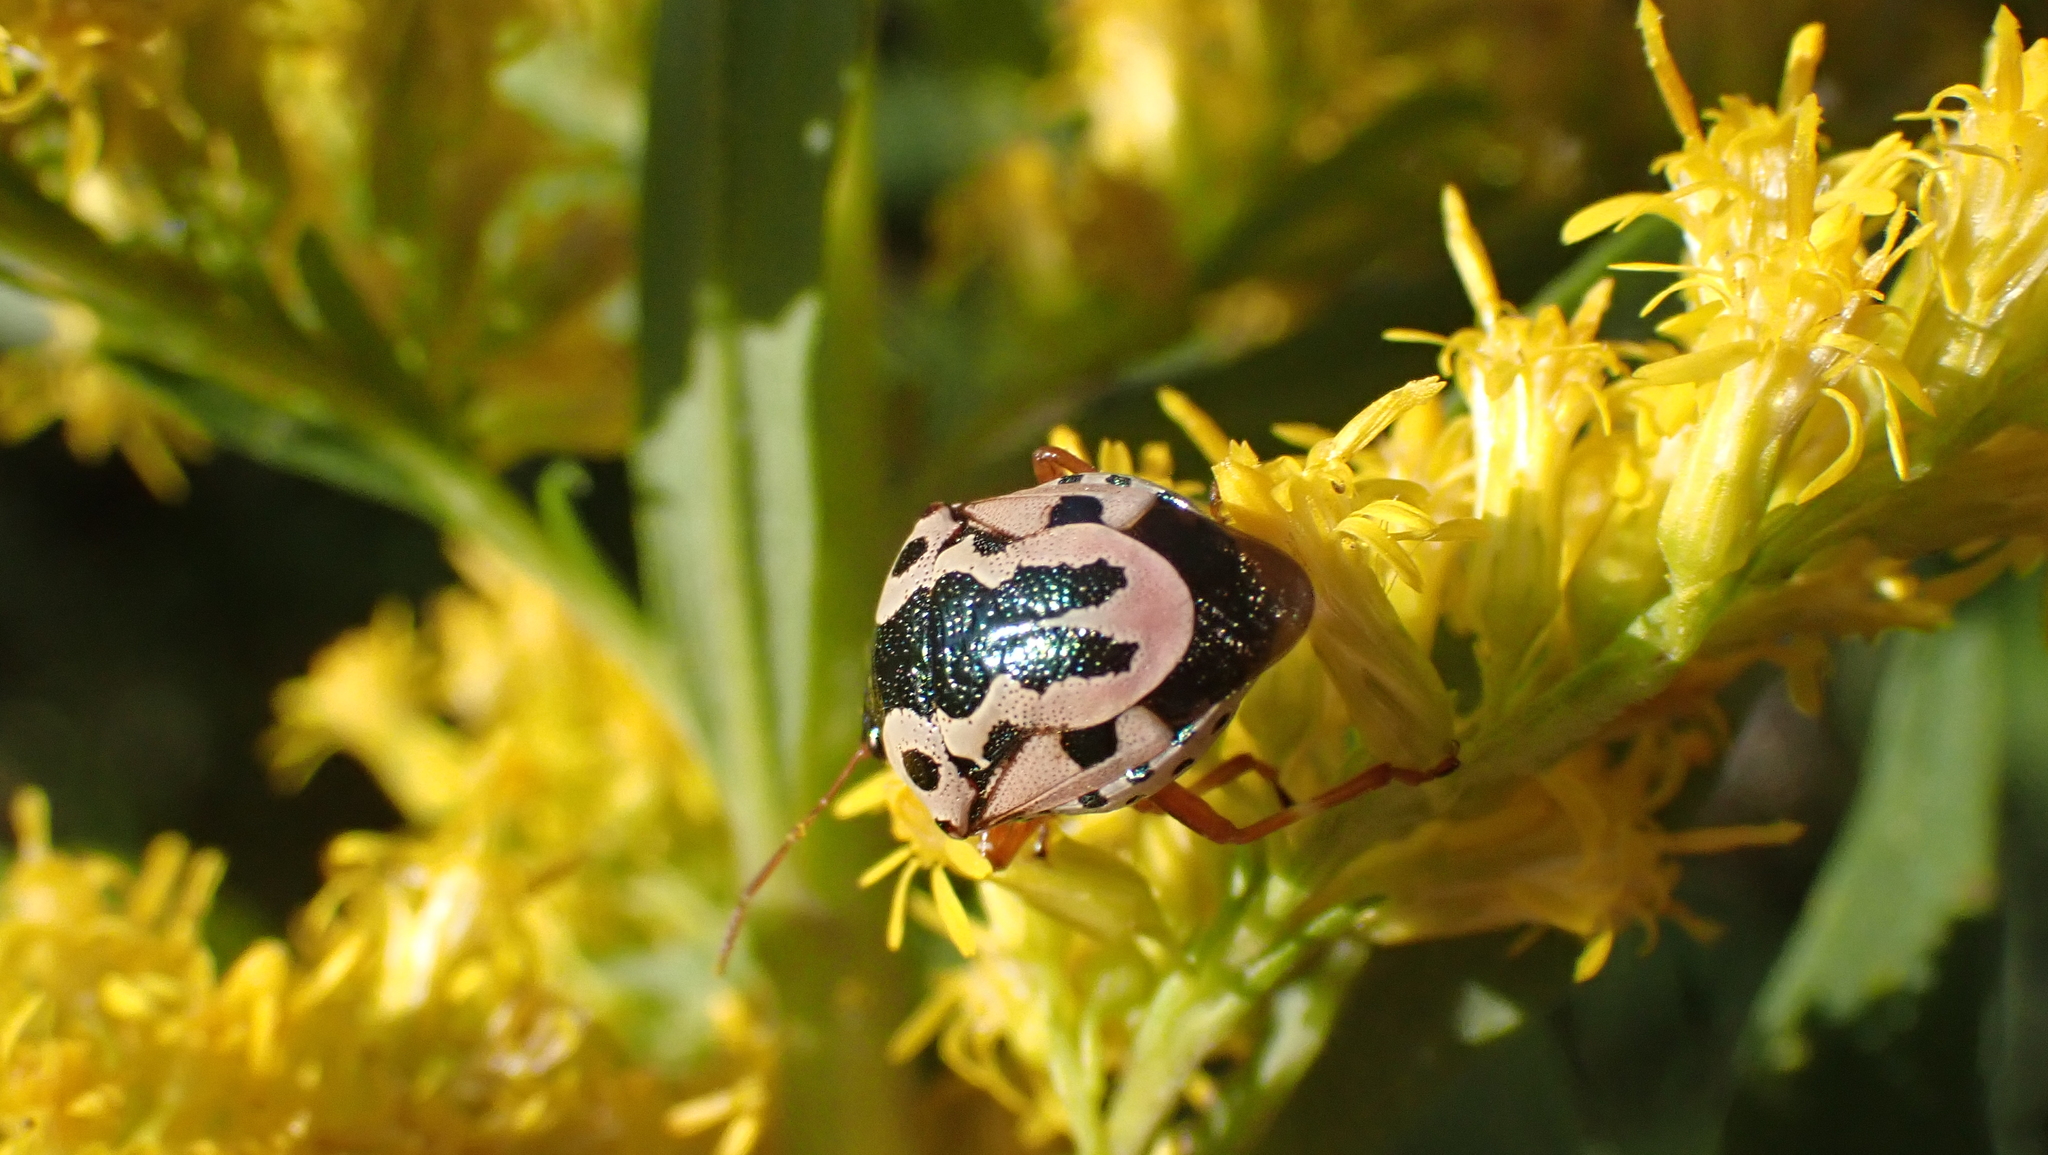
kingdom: Animalia
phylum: Arthropoda
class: Insecta
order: Hemiptera
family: Pentatomidae
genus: Stiretrus
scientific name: Stiretrus anchorago
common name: Anchor stink bug
